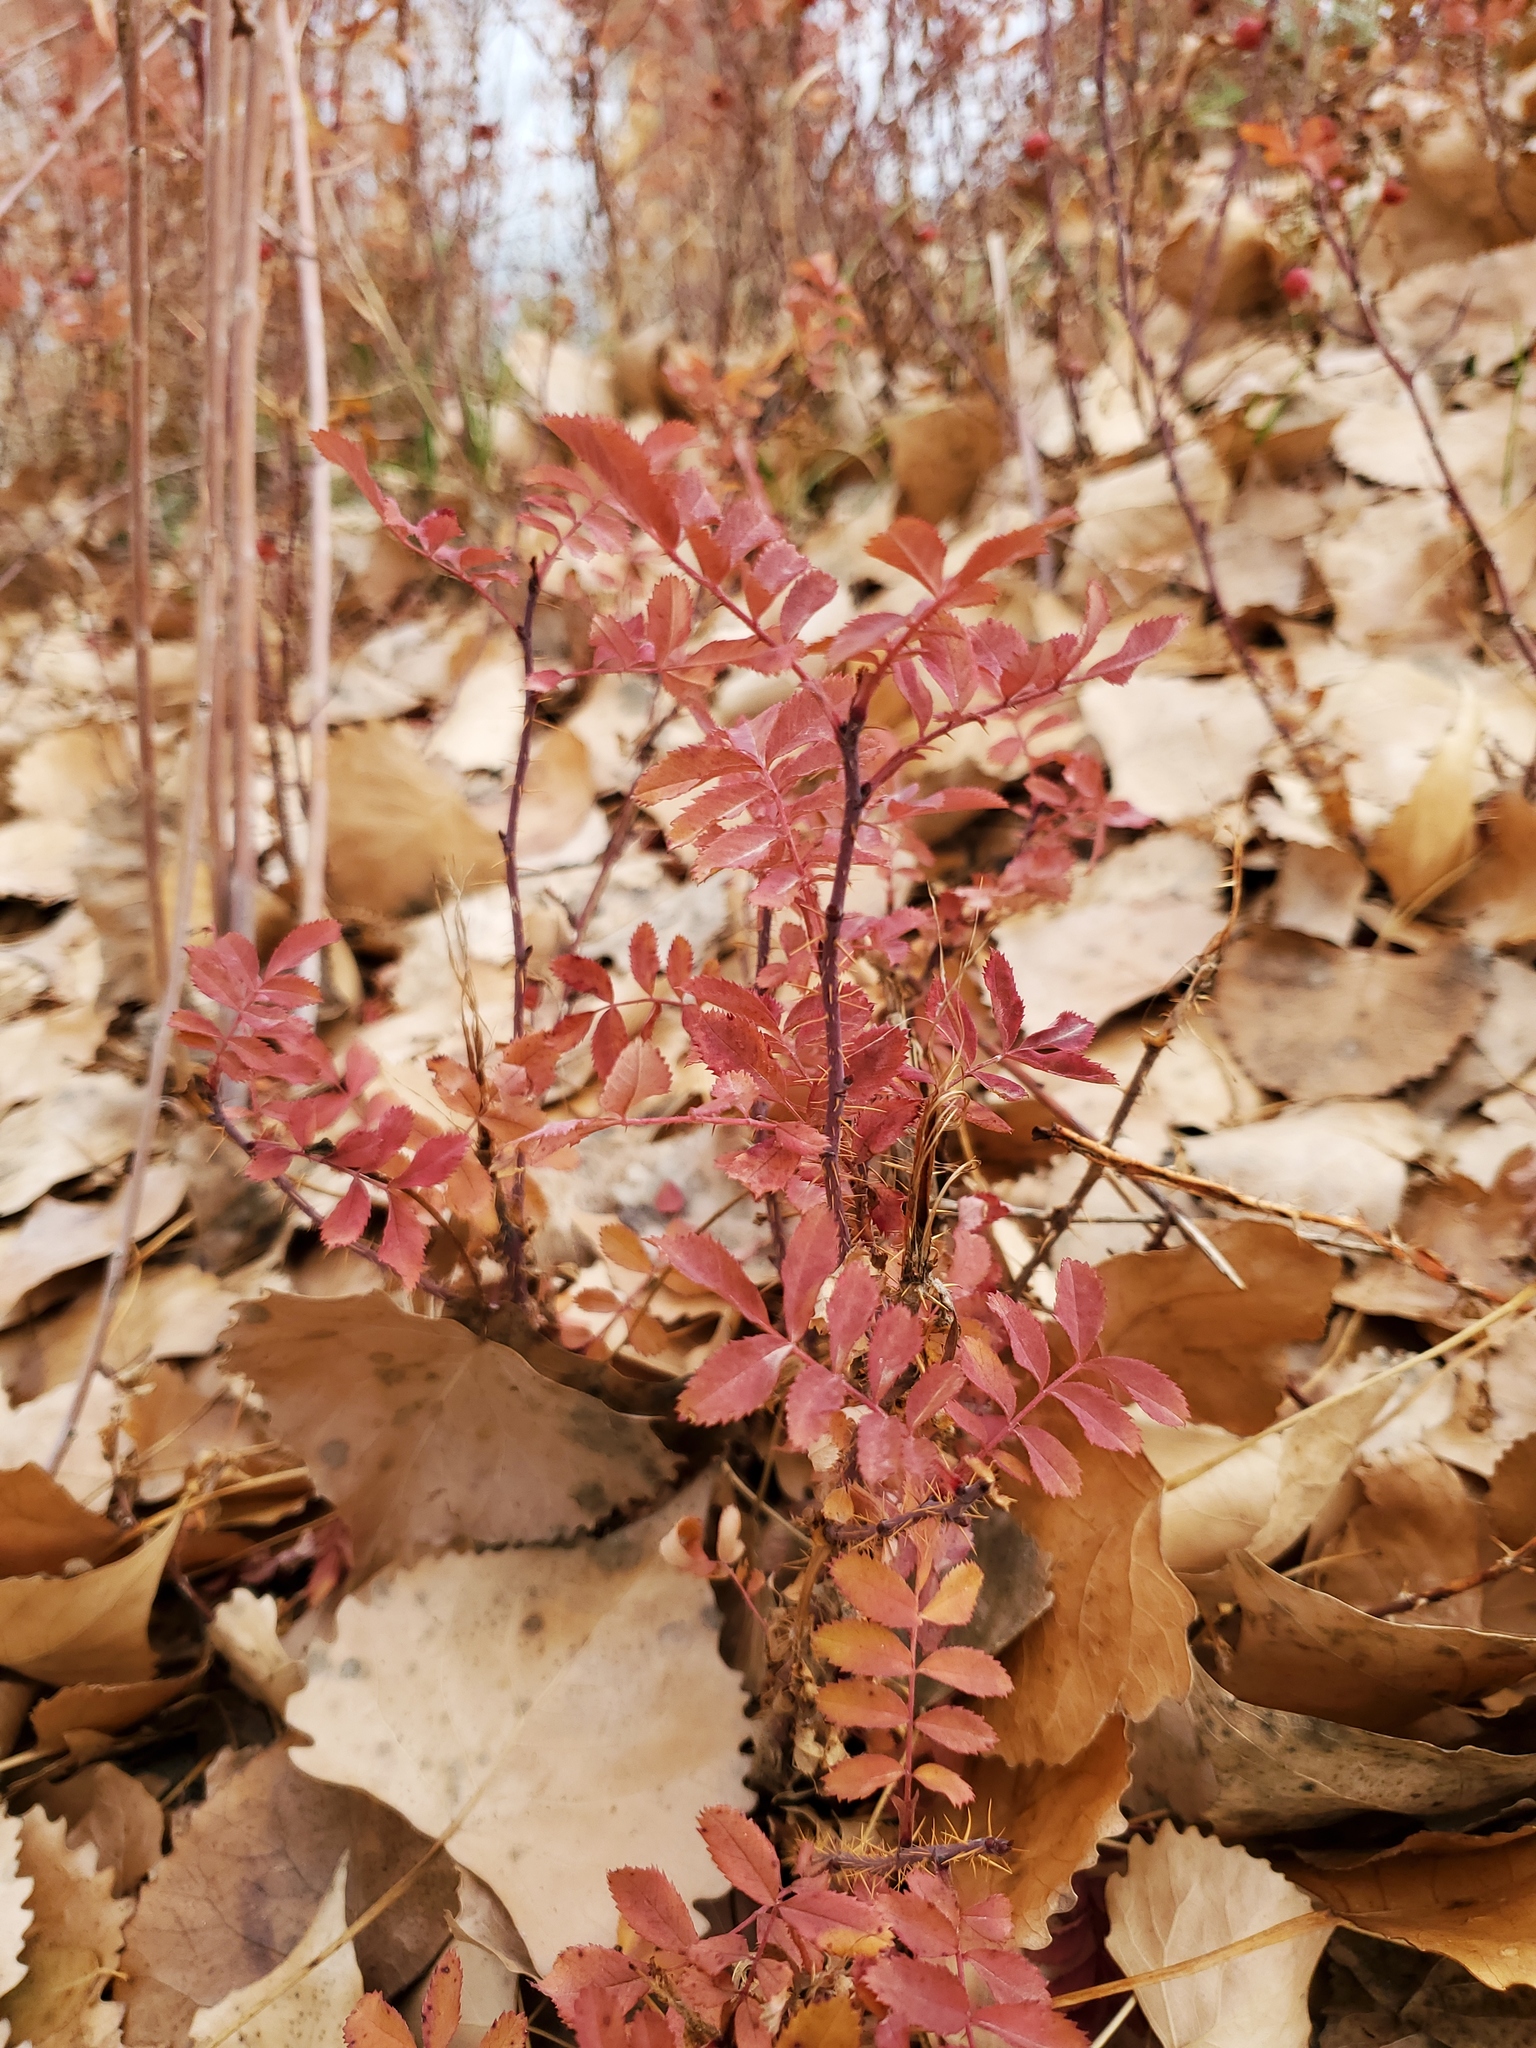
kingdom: Plantae
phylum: Tracheophyta
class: Magnoliopsida
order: Rosales
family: Rosaceae
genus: Rosa
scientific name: Rosa woodsii
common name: Woods's rose
